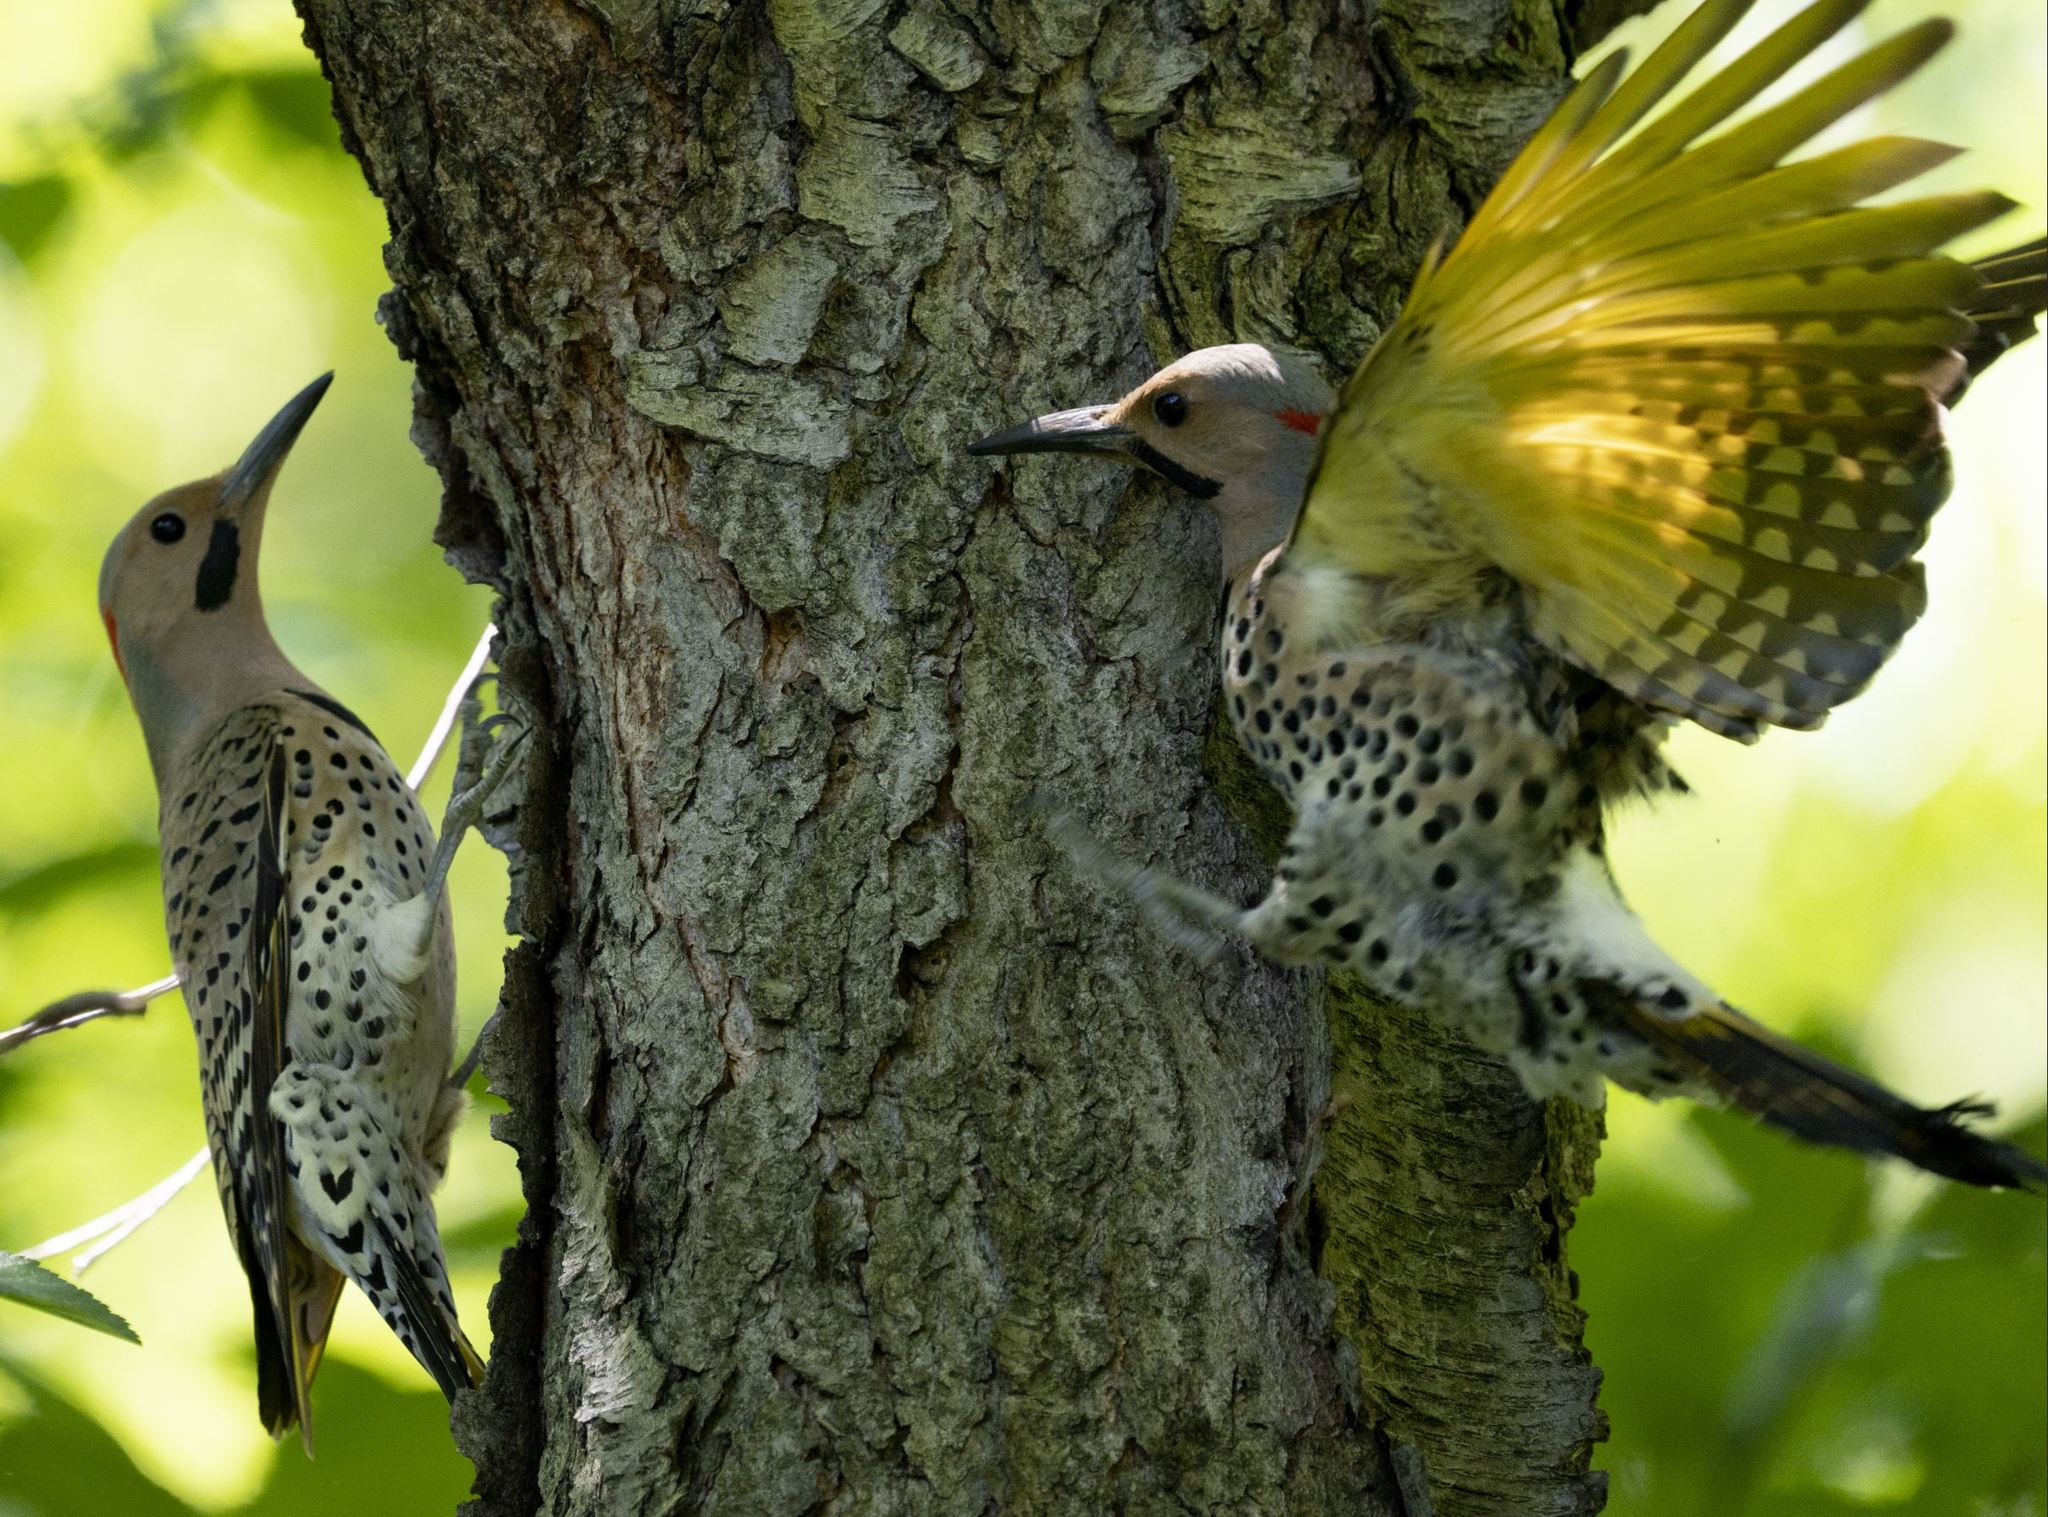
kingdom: Animalia
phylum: Chordata
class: Aves
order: Piciformes
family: Picidae
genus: Colaptes
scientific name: Colaptes auratus
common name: Northern flicker
